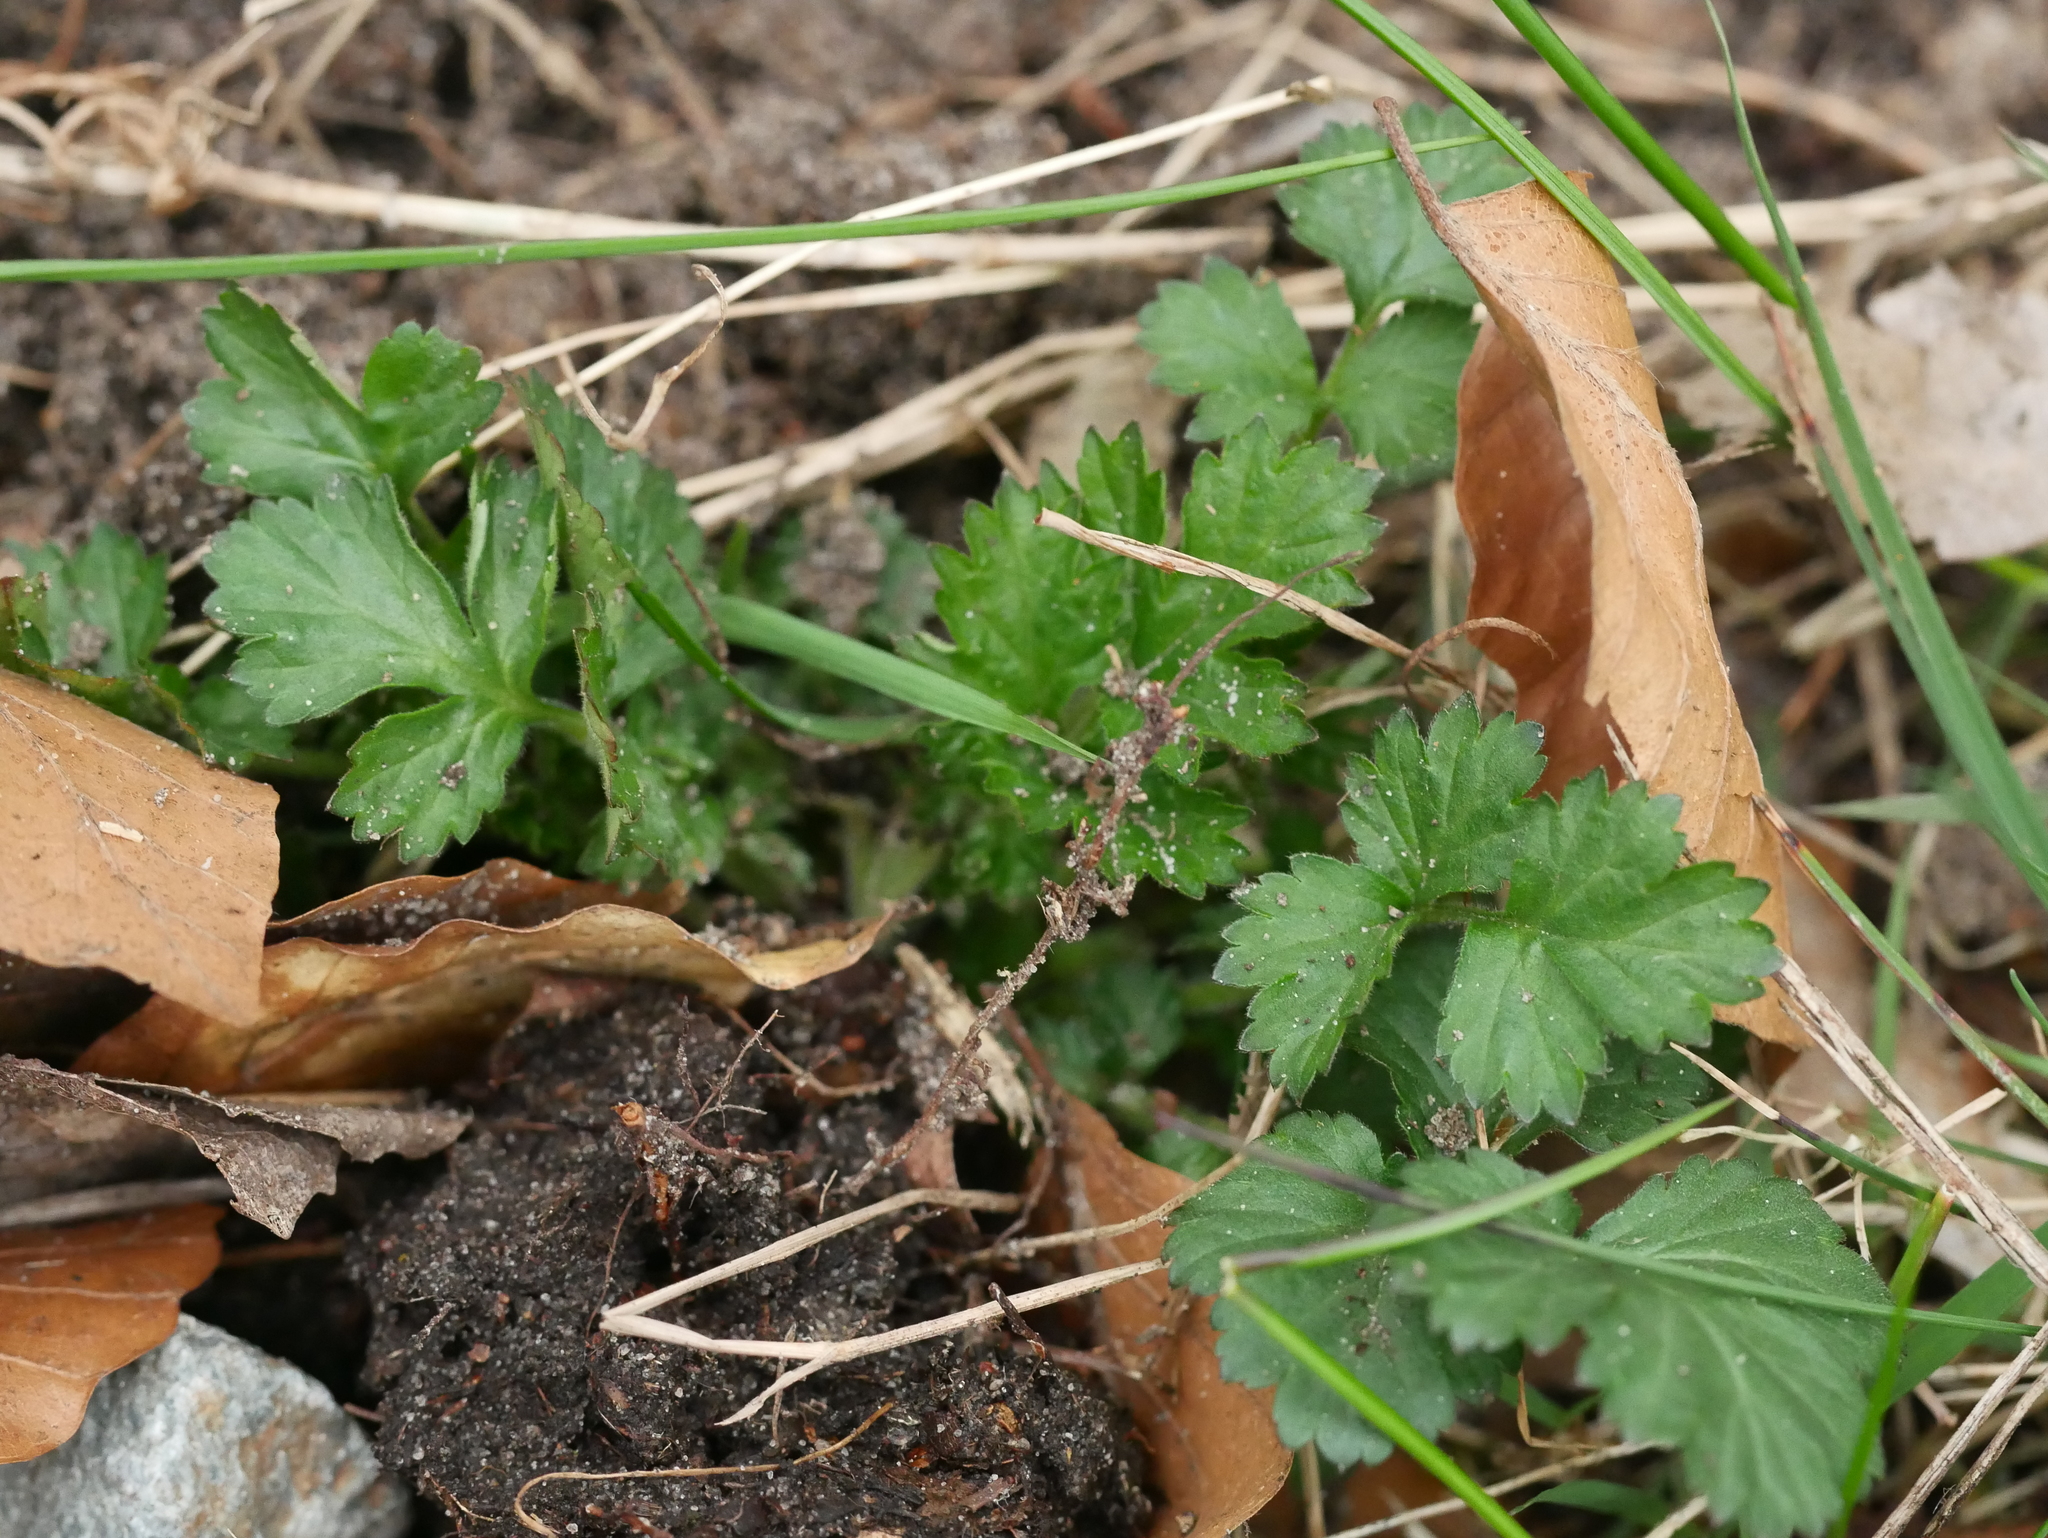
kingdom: Plantae
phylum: Tracheophyta
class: Magnoliopsida
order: Rosales
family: Rosaceae
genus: Geum
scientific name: Geum urbanum
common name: Wood avens
